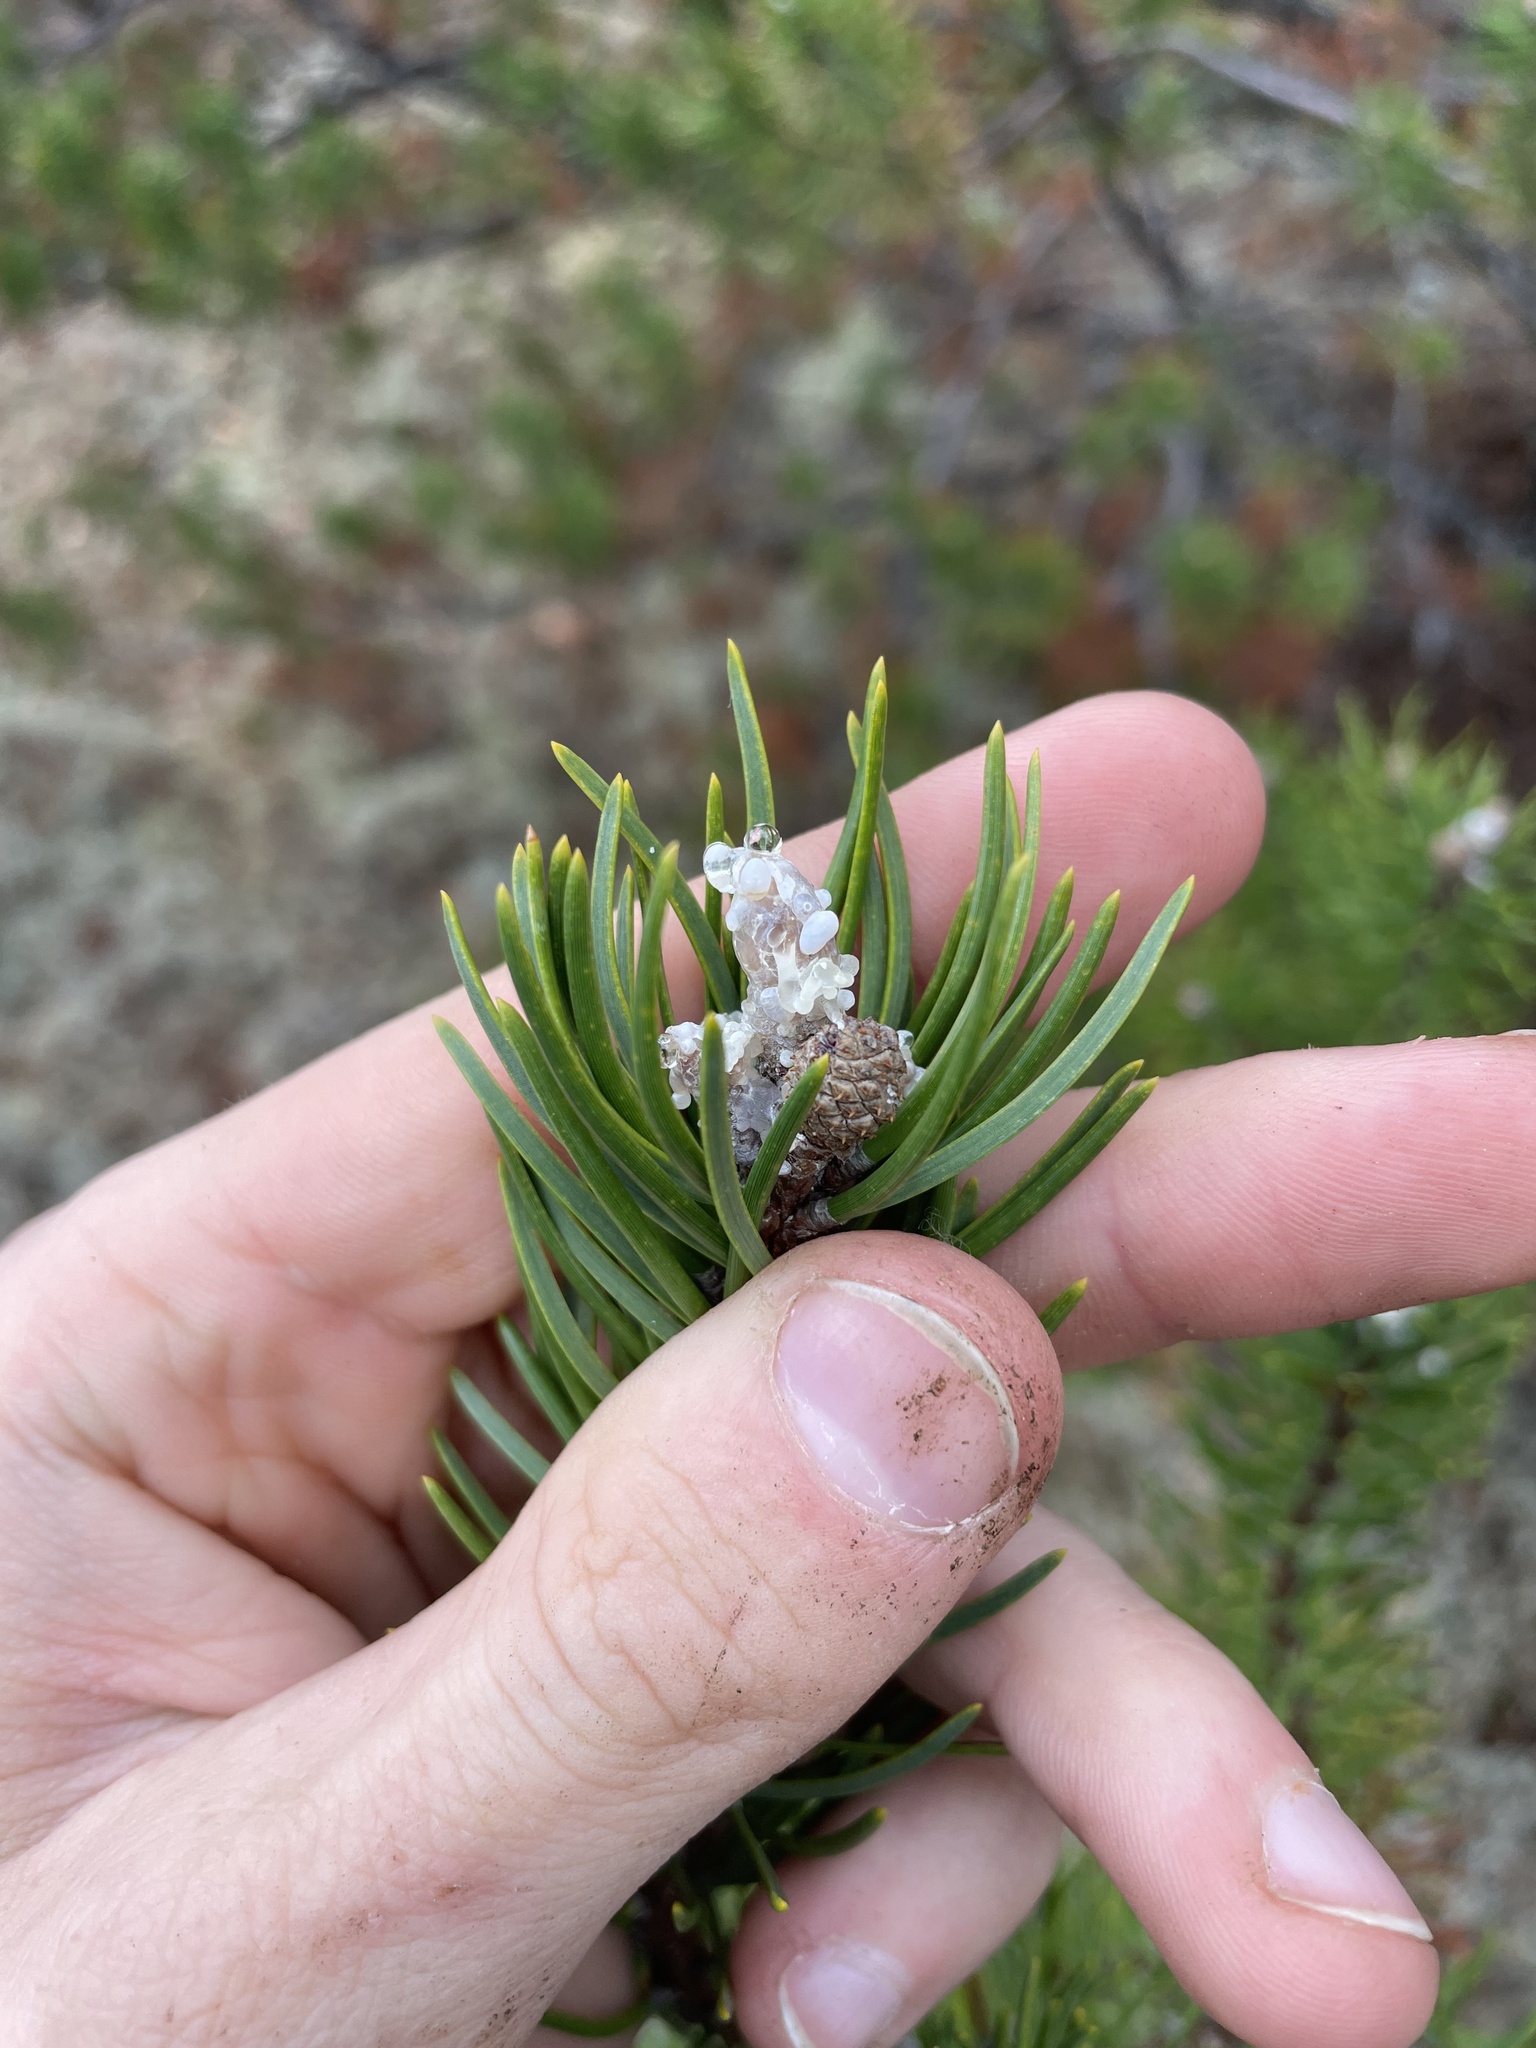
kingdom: Plantae
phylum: Tracheophyta
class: Pinopsida
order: Pinales
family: Pinaceae
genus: Pinus
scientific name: Pinus banksiana
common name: Jack pine
